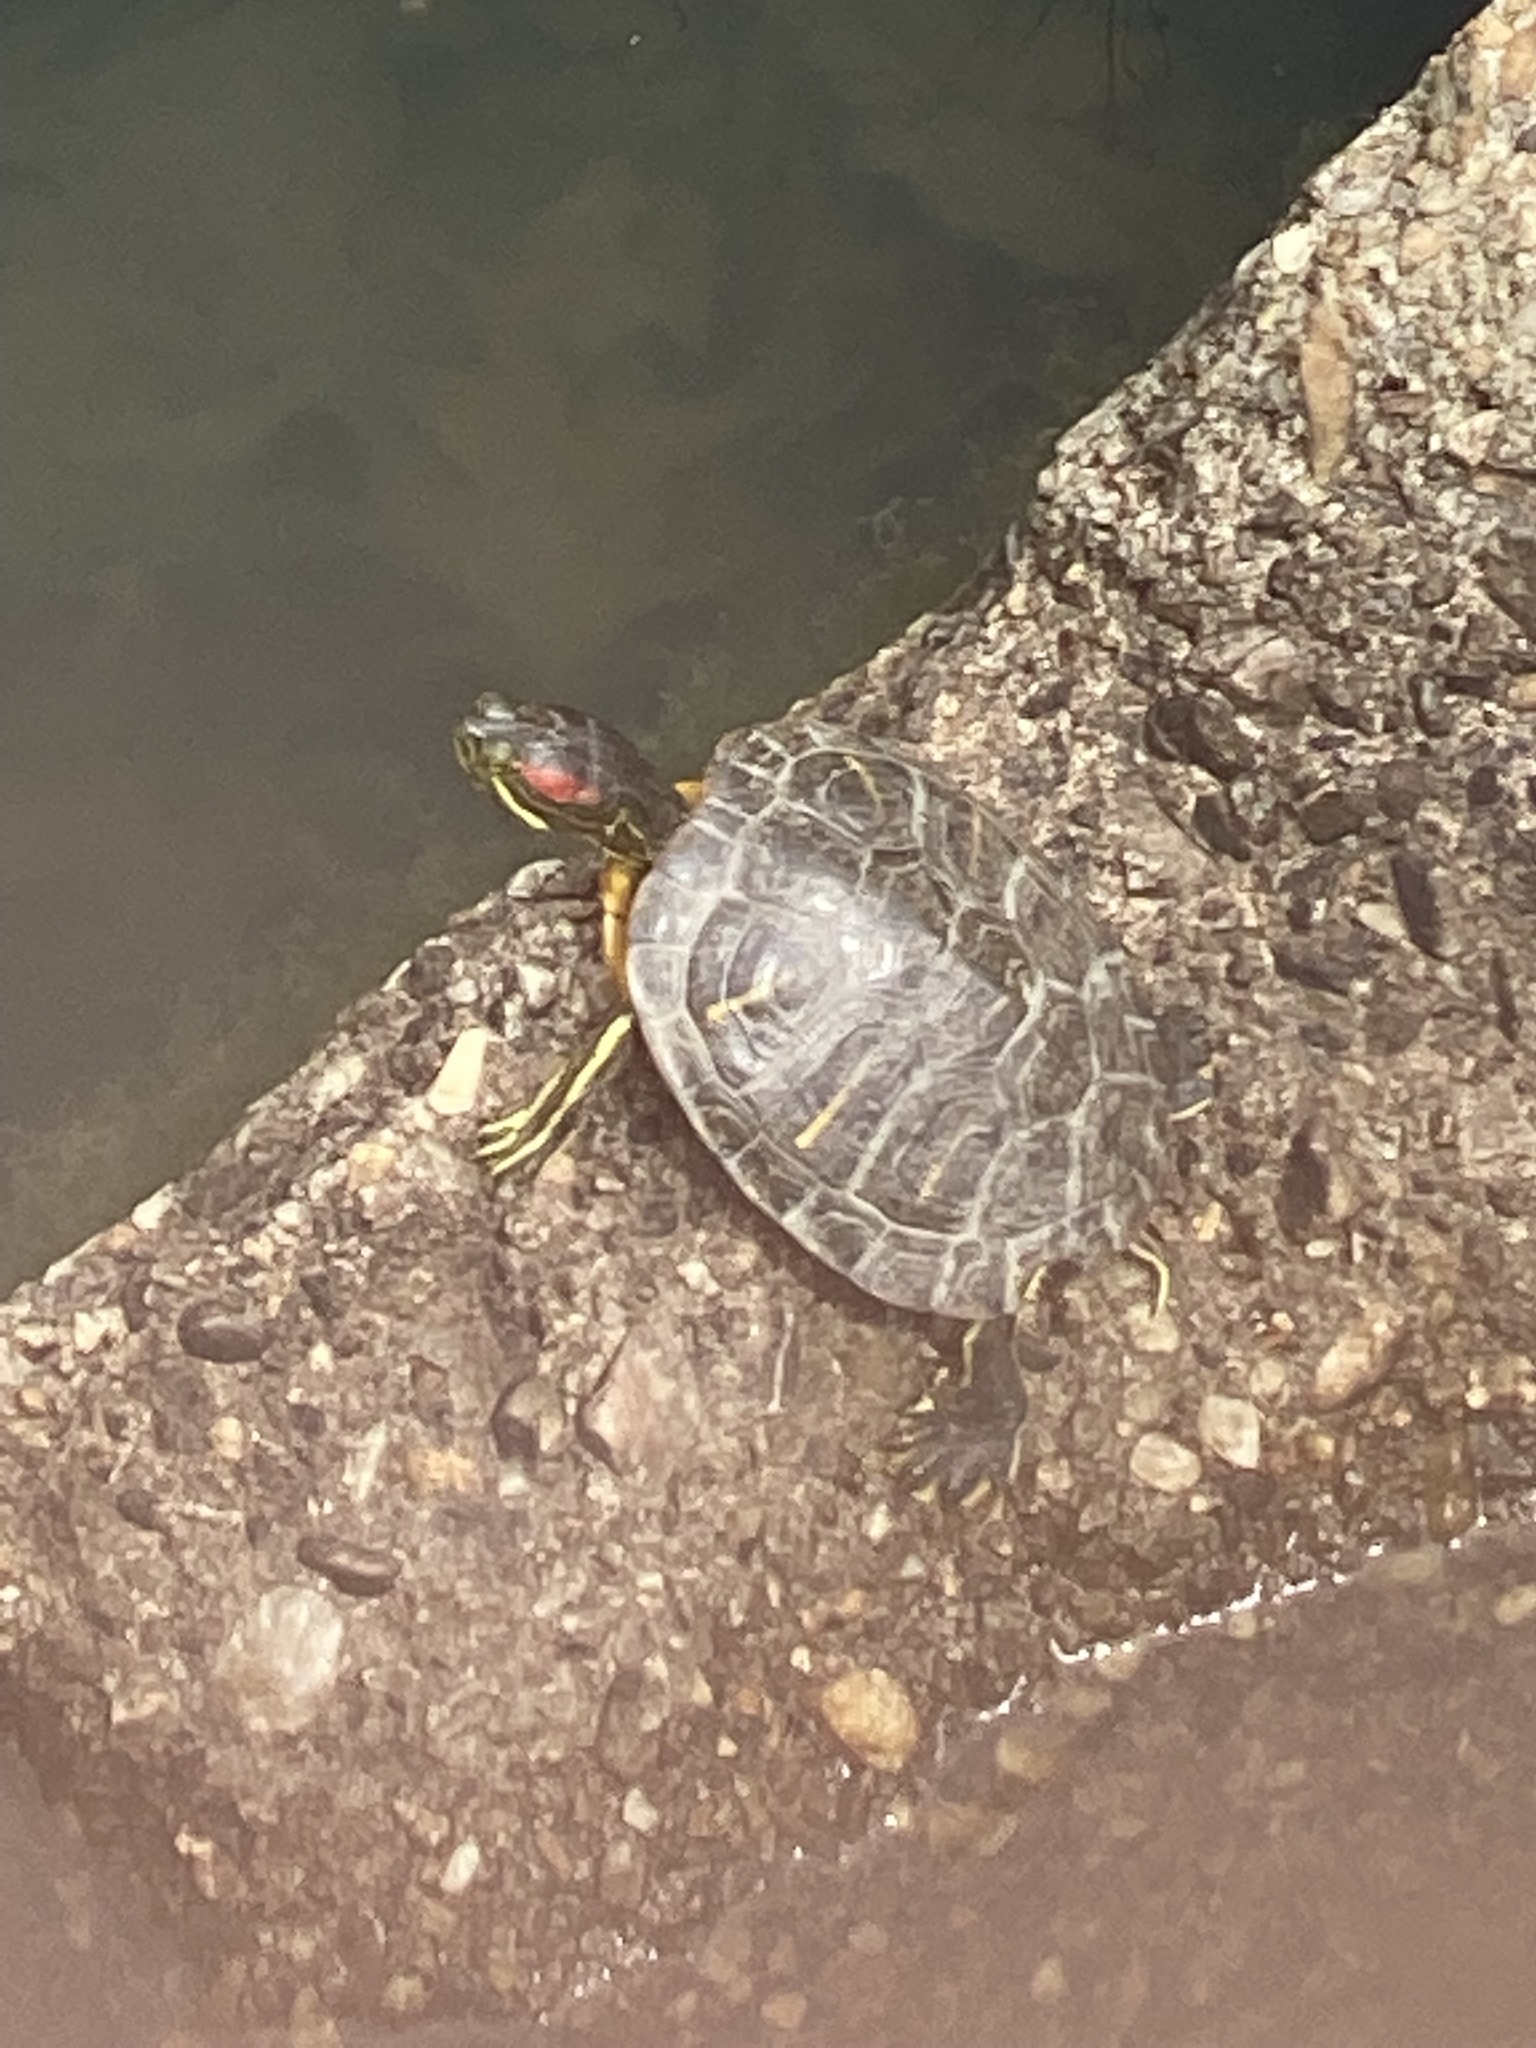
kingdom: Animalia
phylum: Chordata
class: Testudines
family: Emydidae
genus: Trachemys
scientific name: Trachemys scripta
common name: Slider
